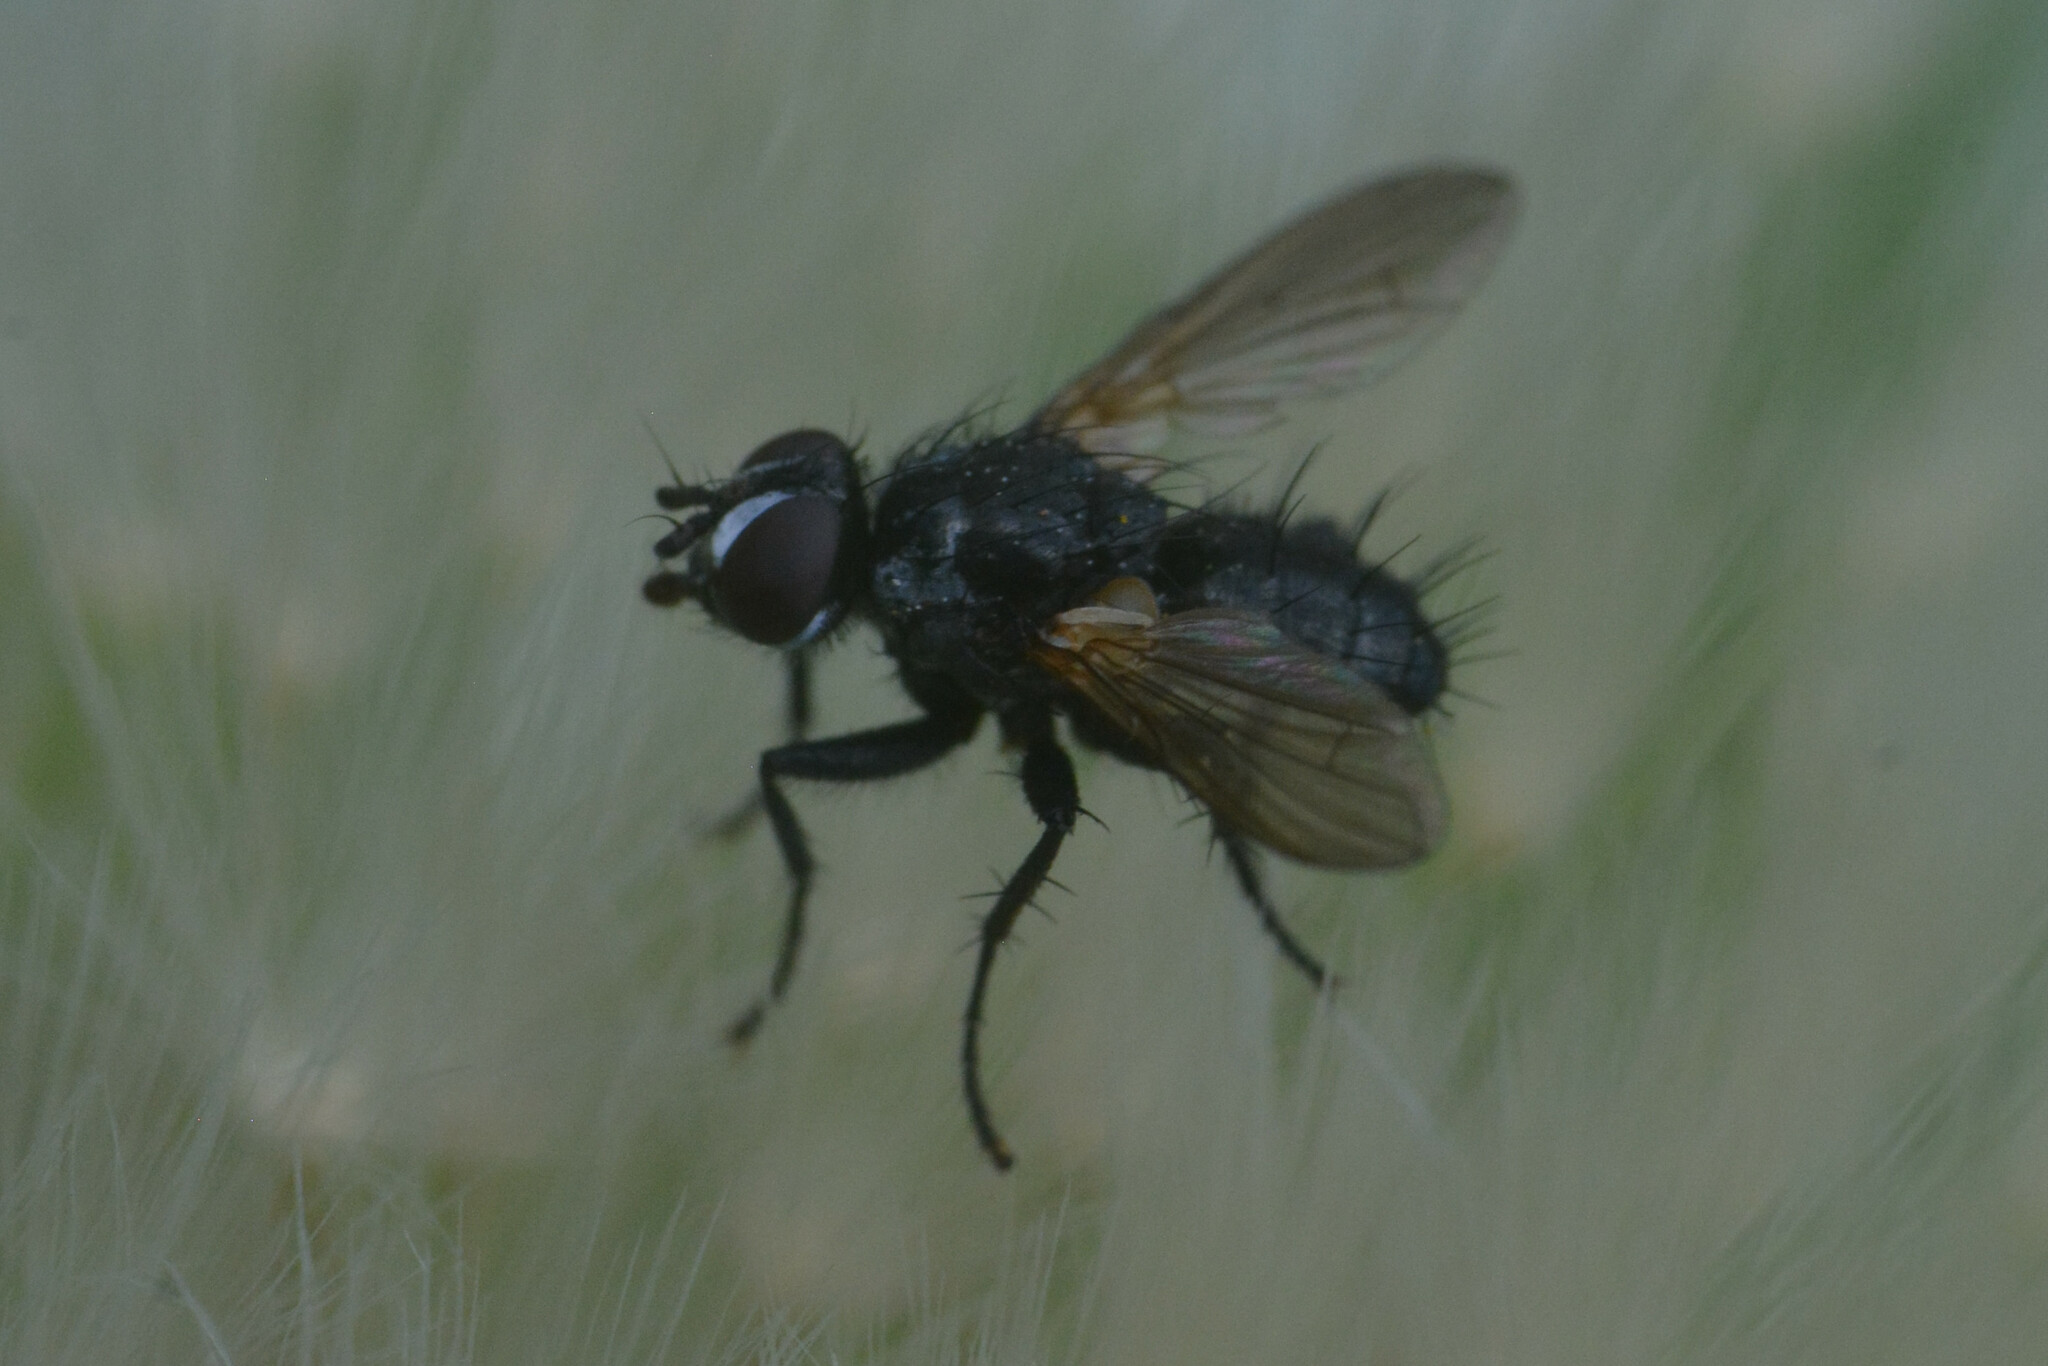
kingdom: Animalia
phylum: Arthropoda
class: Insecta
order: Diptera
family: Tachinidae
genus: Phania
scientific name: Phania funesta
